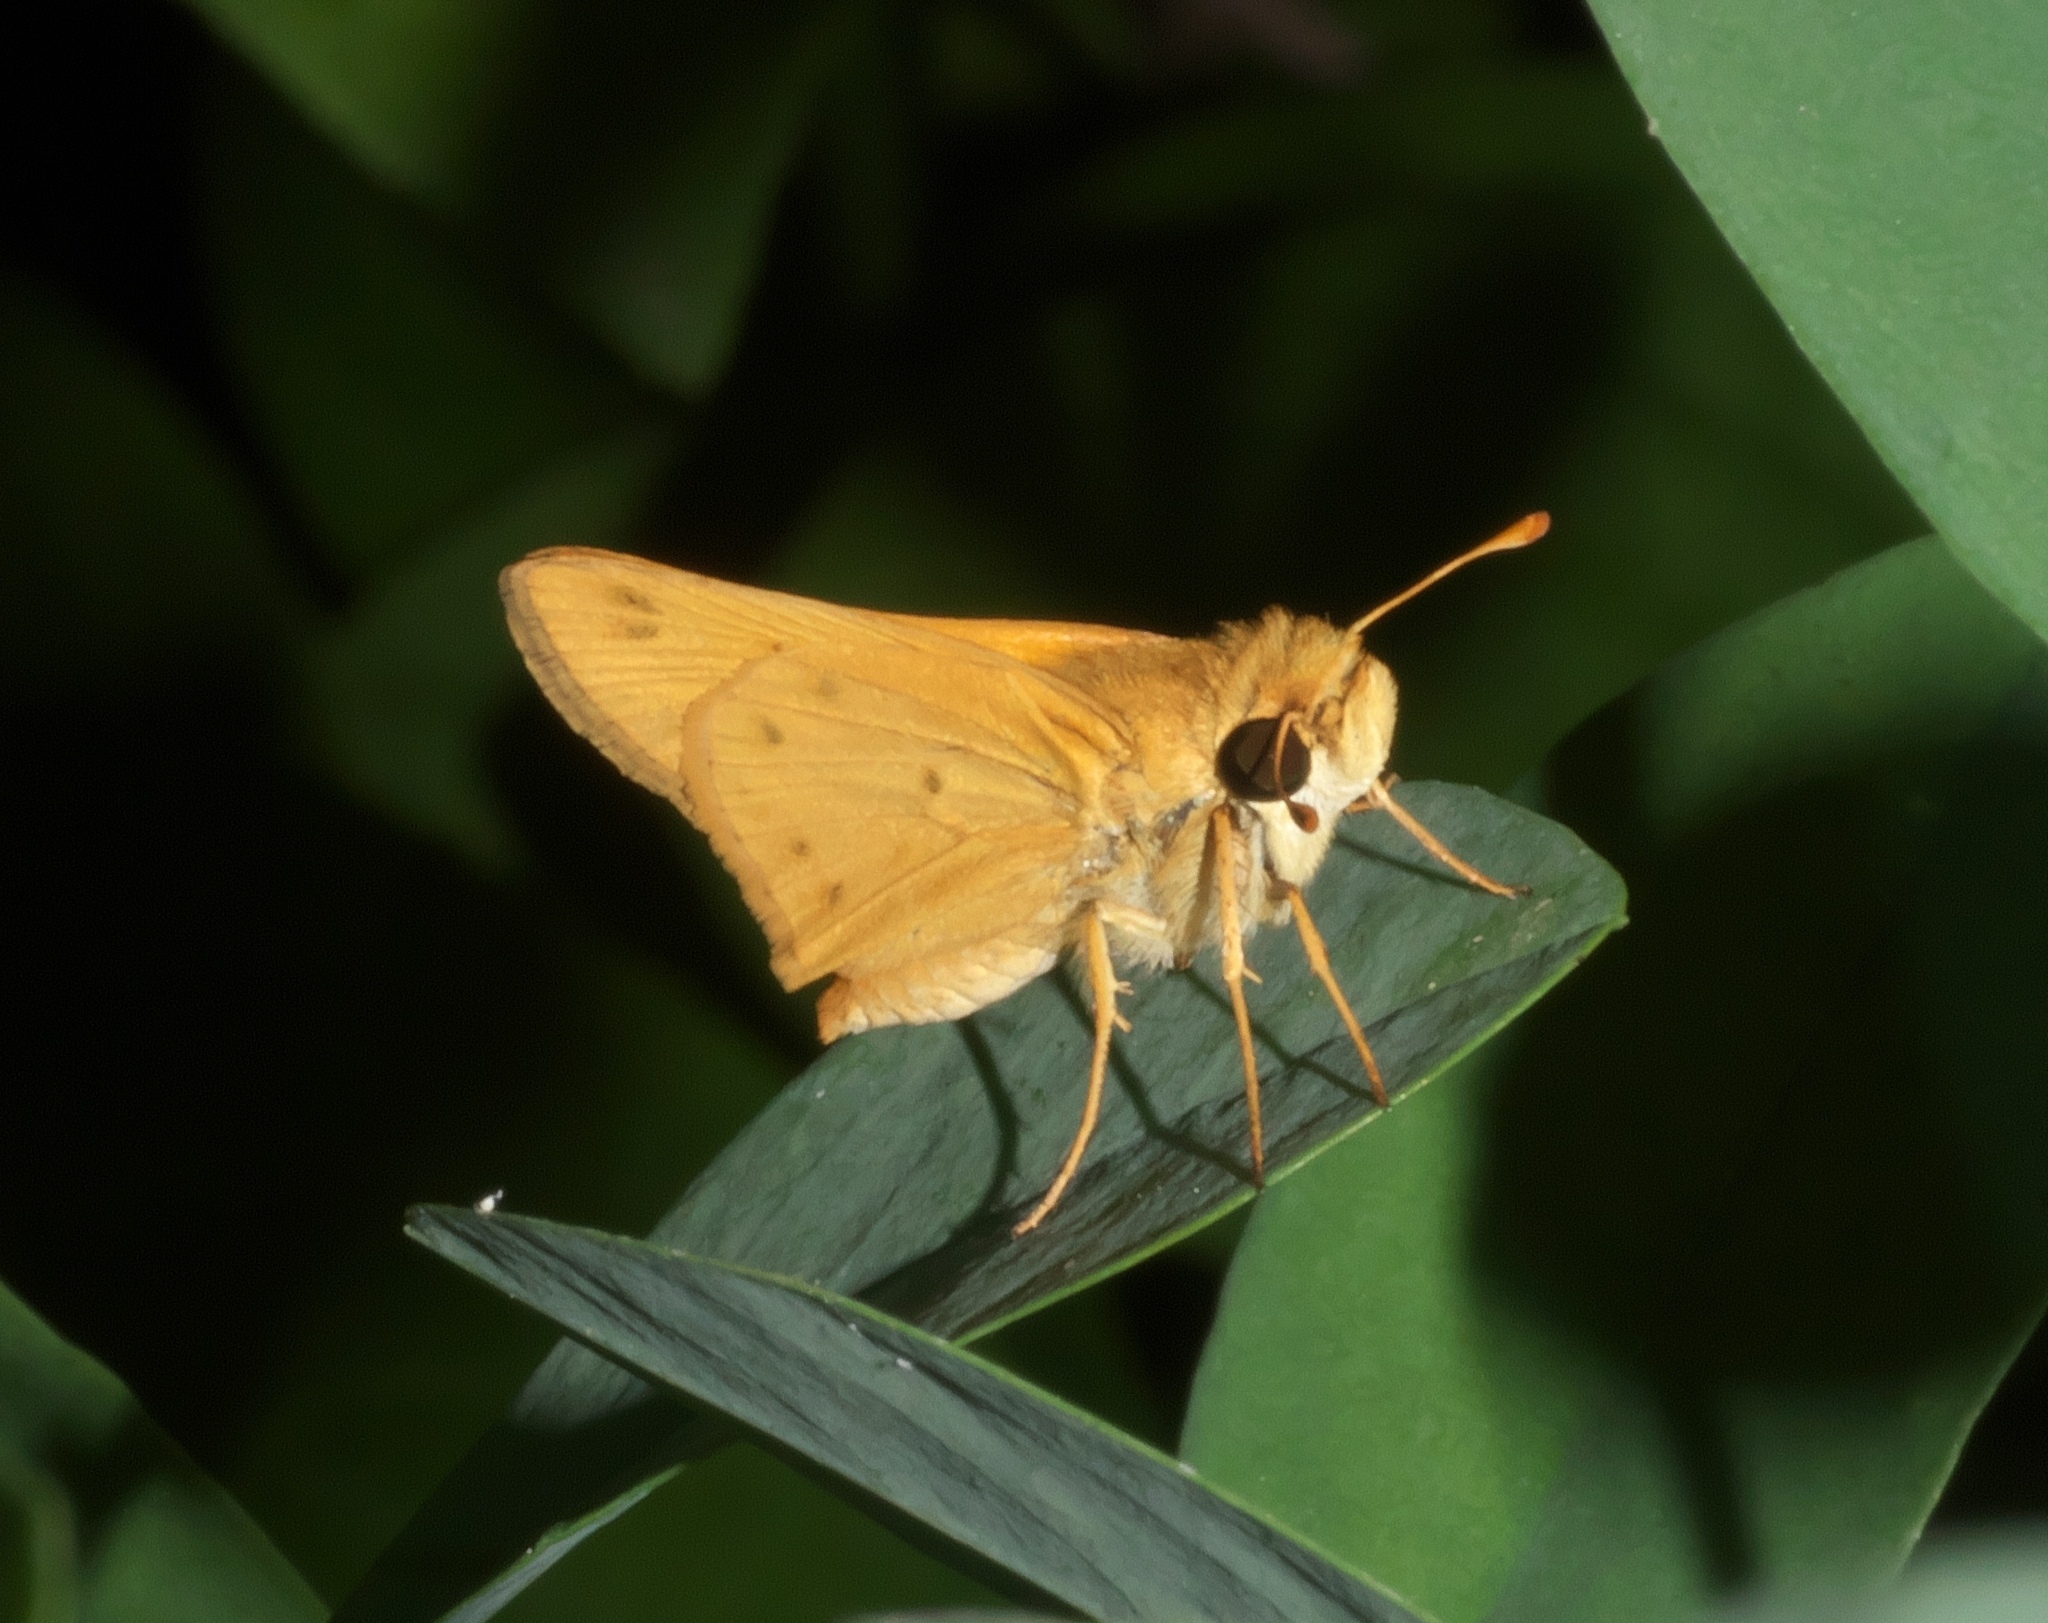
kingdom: Animalia
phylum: Arthropoda
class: Insecta
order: Lepidoptera
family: Hesperiidae
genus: Hylephila
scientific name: Hylephila phyleus
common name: Fiery skipper
